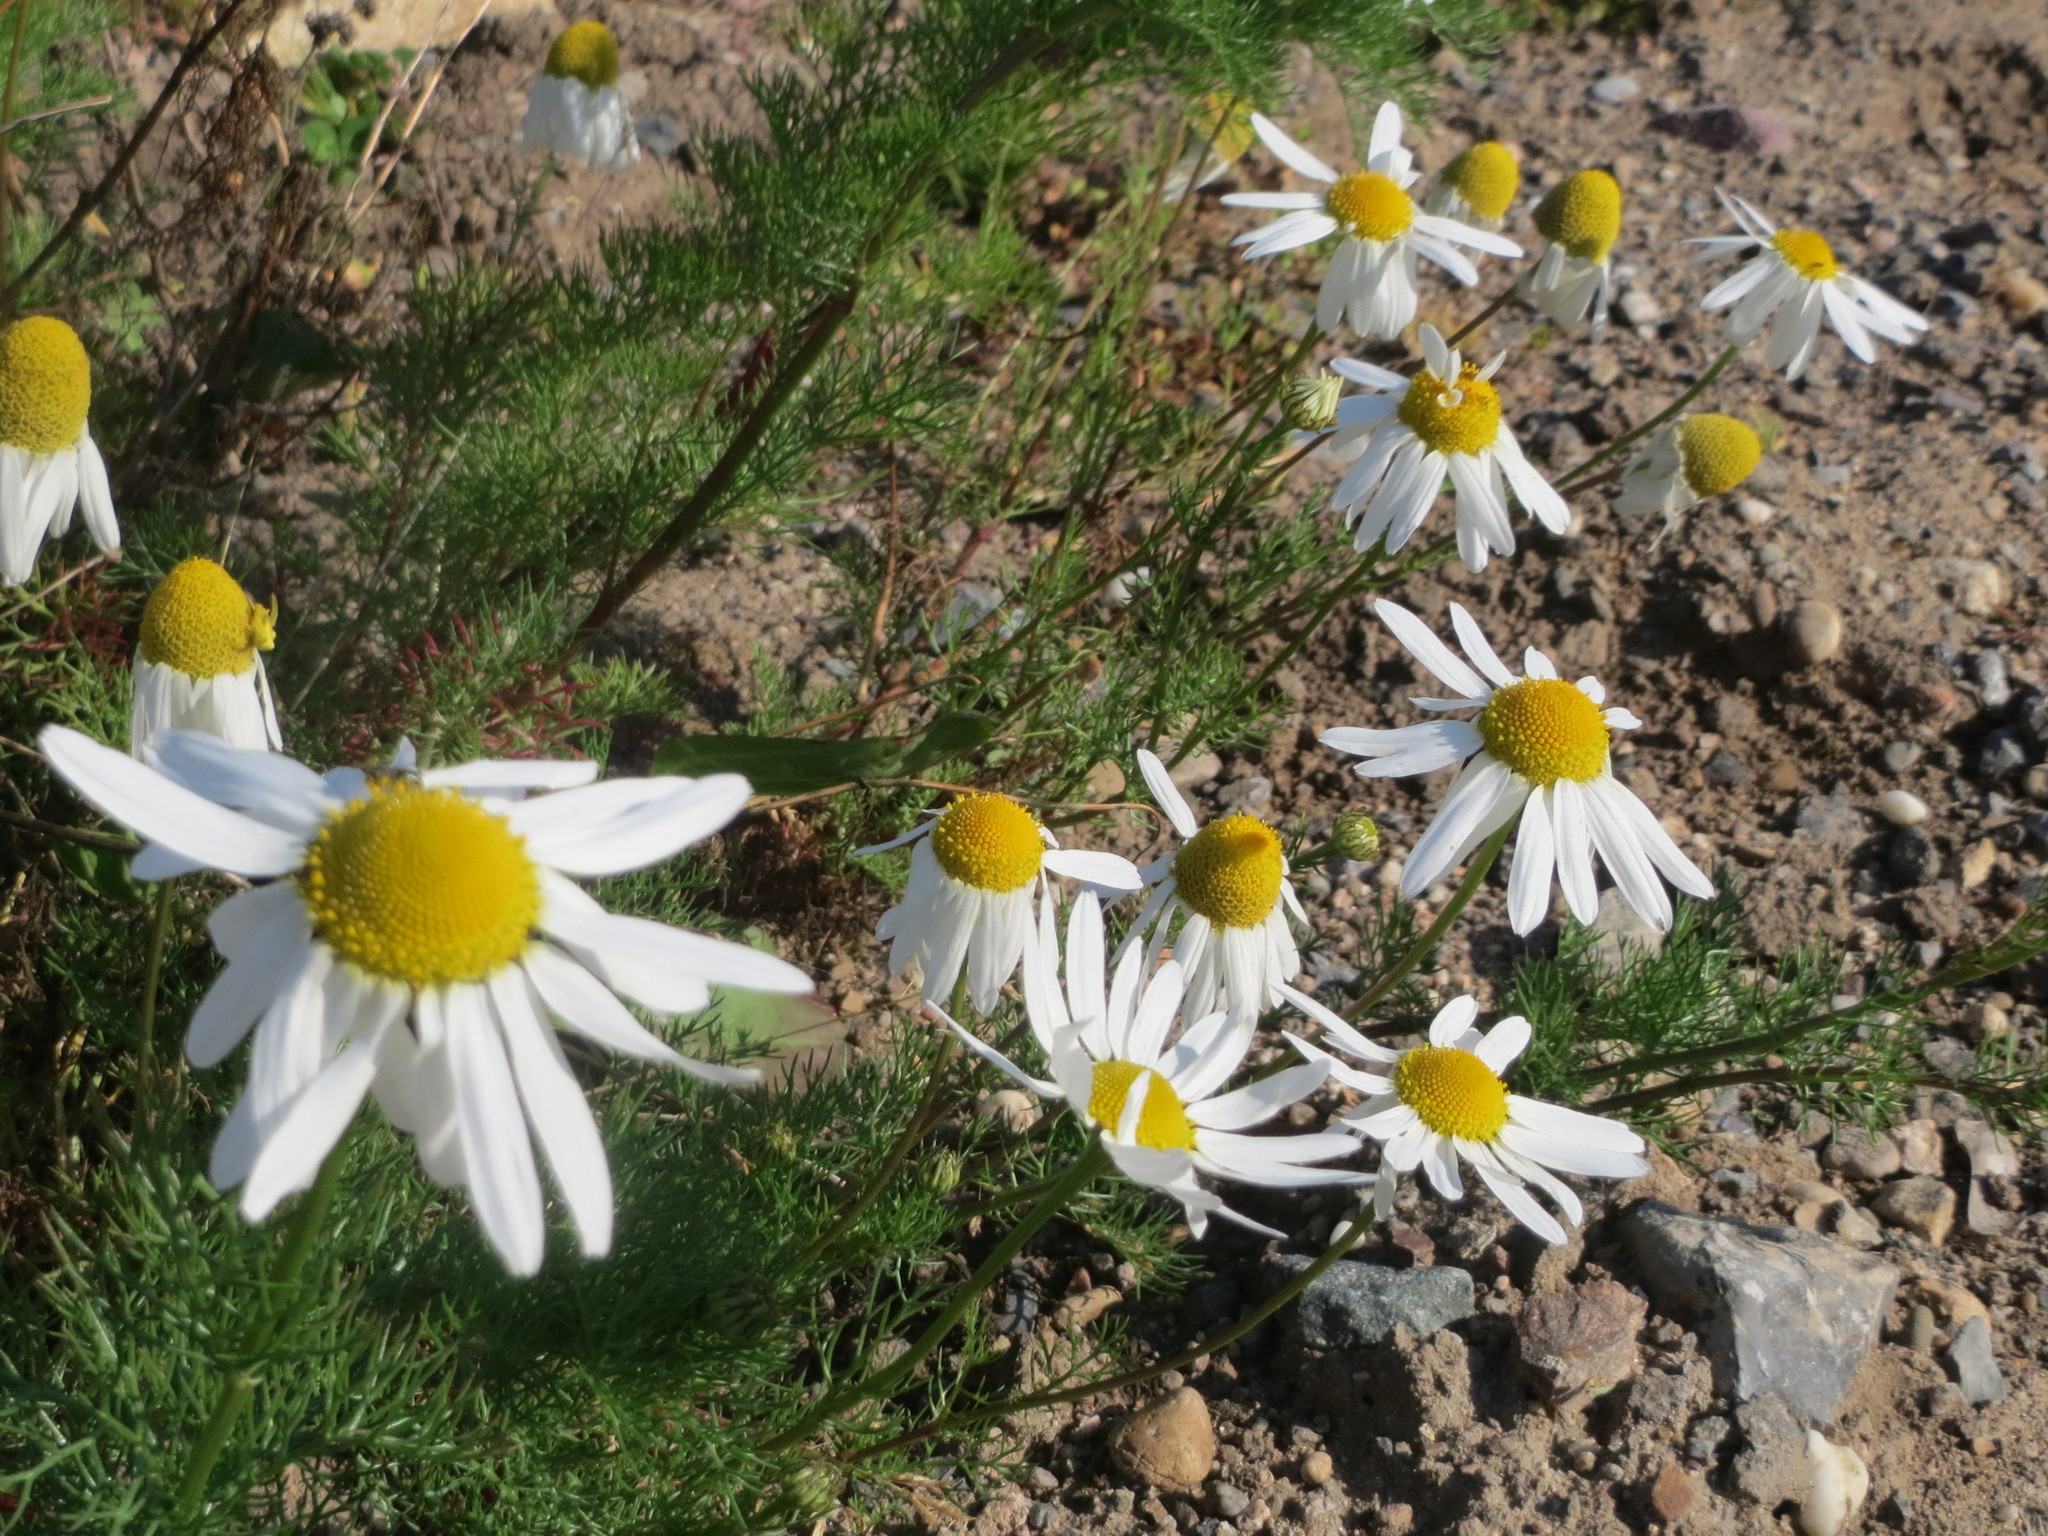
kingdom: Plantae
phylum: Tracheophyta
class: Magnoliopsida
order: Asterales
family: Asteraceae
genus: Tripleurospermum
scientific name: Tripleurospermum inodorum
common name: Scentless mayweed
